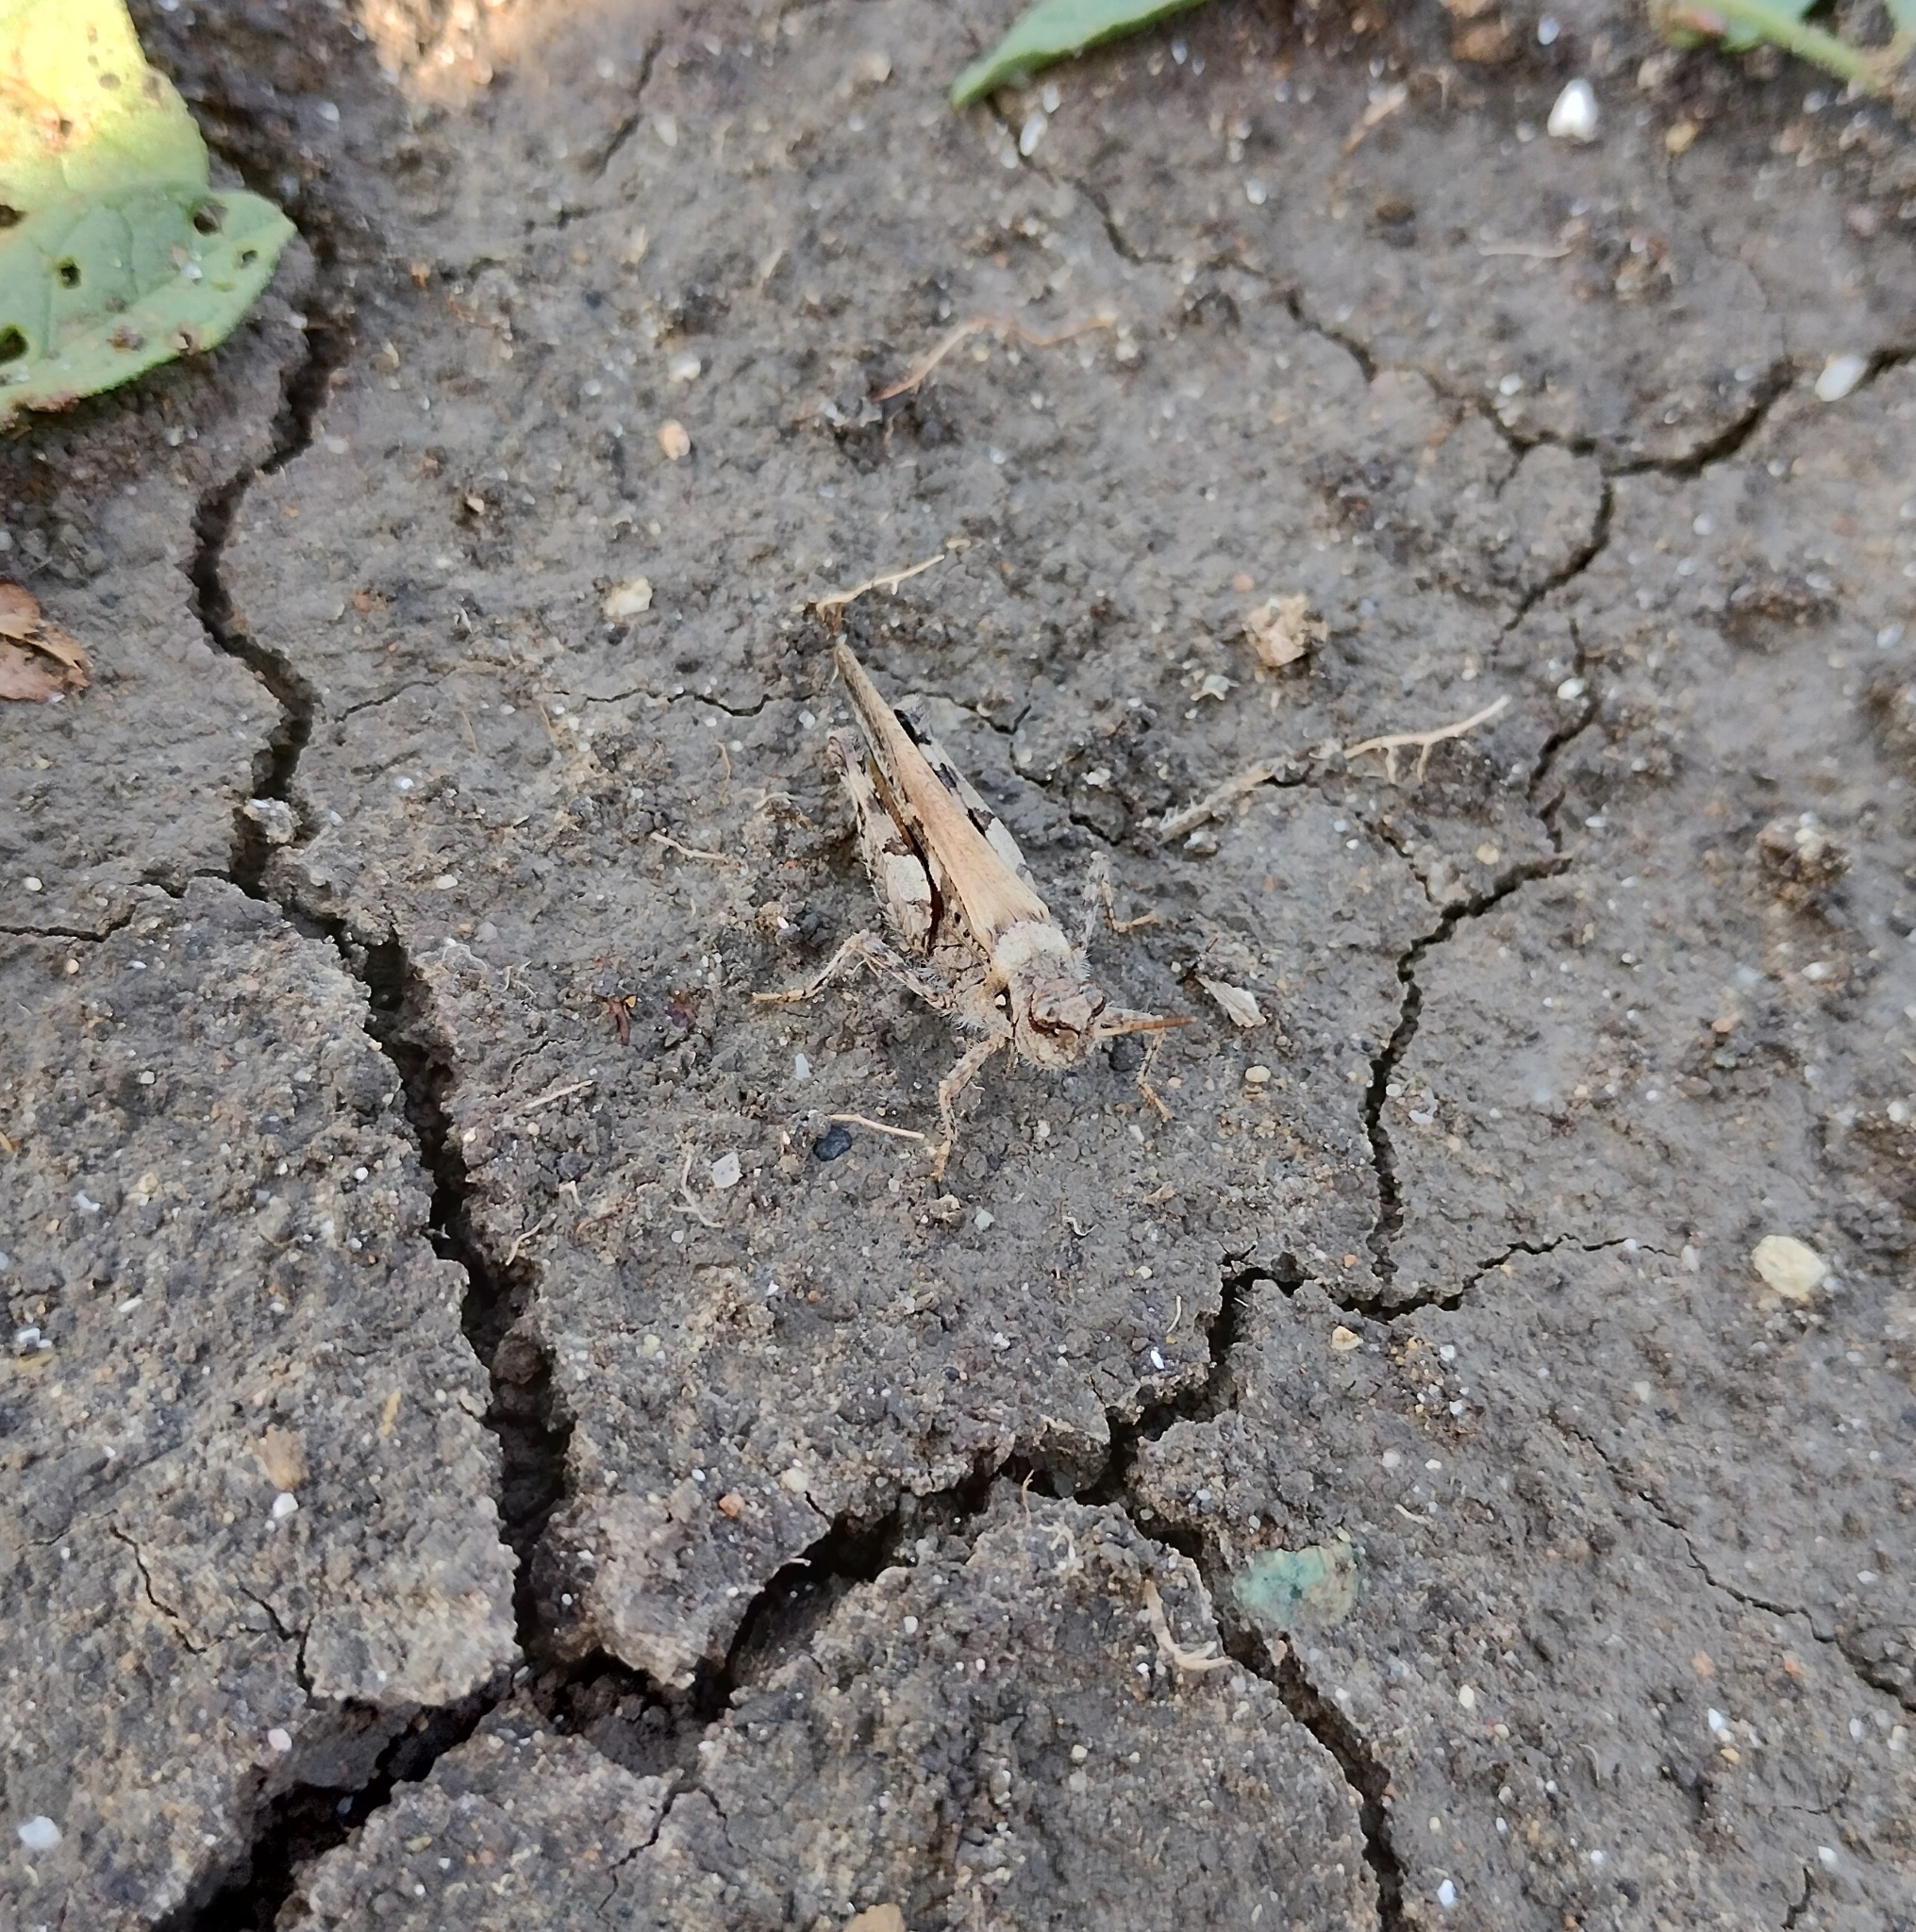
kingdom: Animalia
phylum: Arthropoda
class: Insecta
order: Orthoptera
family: Acrididae
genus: Acrotylus
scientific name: Acrotylus insubricus
